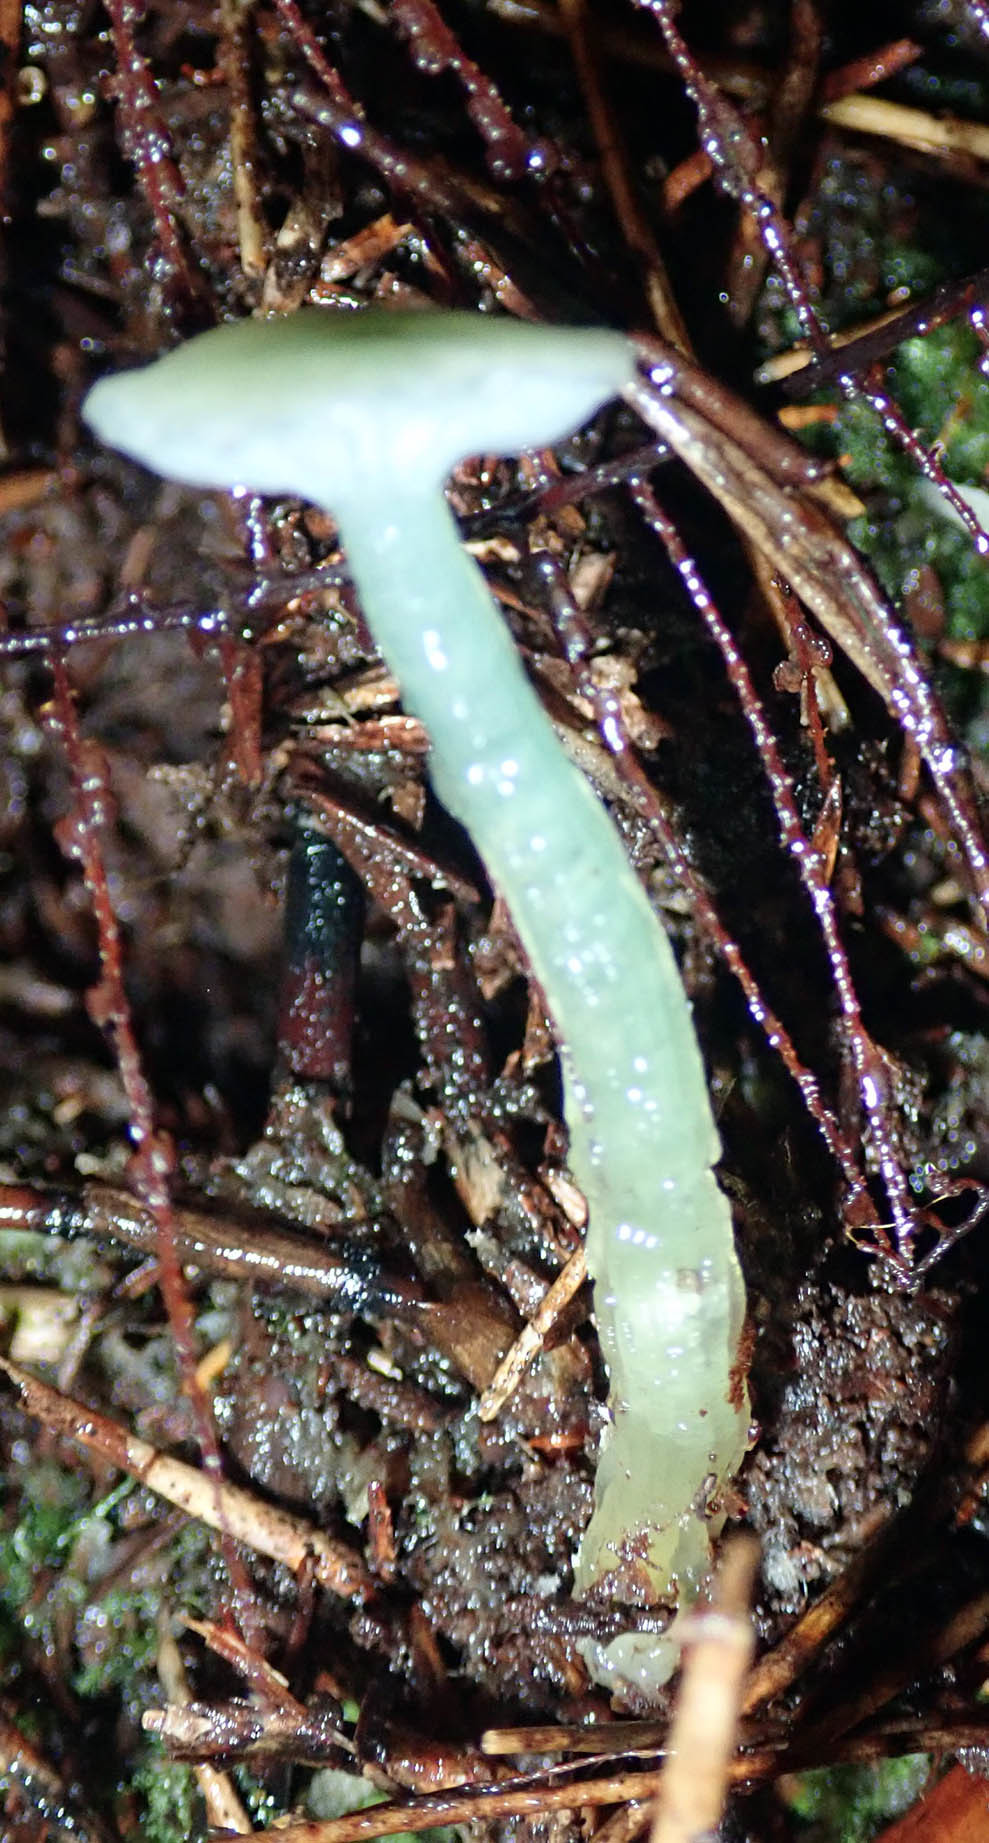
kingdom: Fungi
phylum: Basidiomycota
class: Agaricomycetes
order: Agaricales
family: Hygrophoraceae
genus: Gliophorus
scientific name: Gliophorus graminicolor
